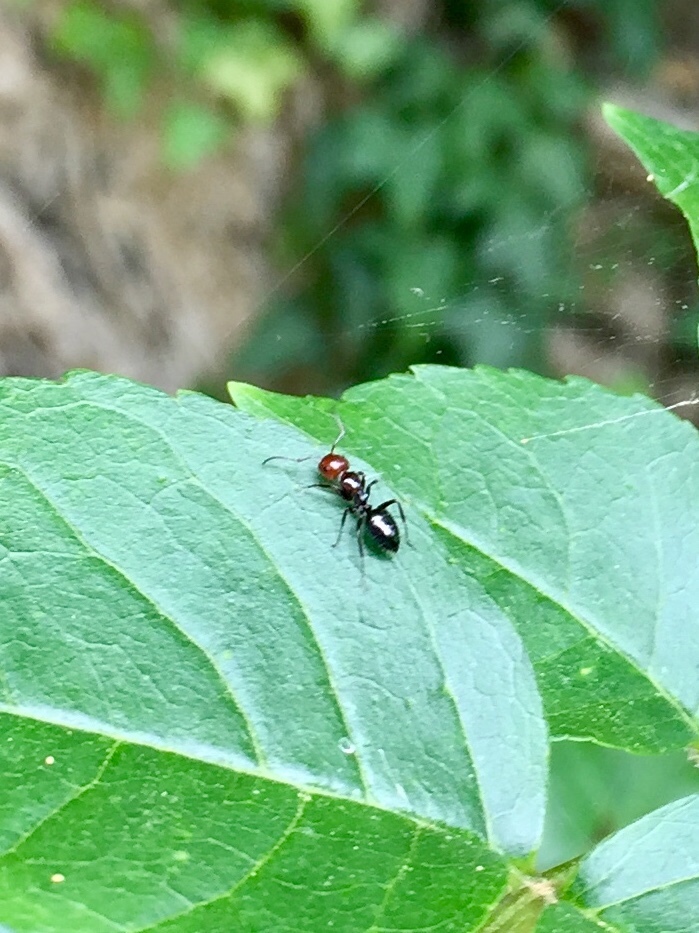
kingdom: Animalia
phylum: Arthropoda
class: Insecta
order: Hymenoptera
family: Formicidae
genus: Camponotus
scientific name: Camponotus lateralis
